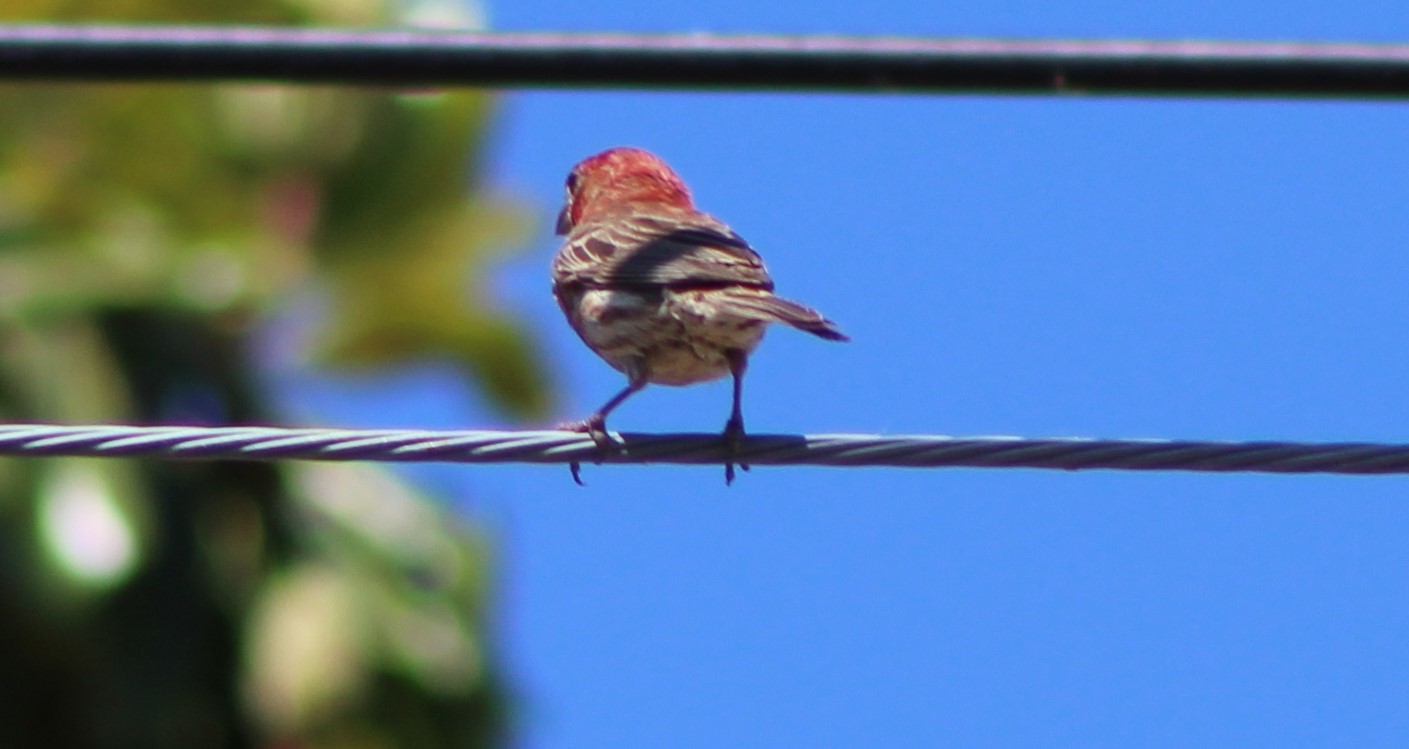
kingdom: Animalia
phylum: Chordata
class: Aves
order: Passeriformes
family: Fringillidae
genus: Haemorhous
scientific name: Haemorhous mexicanus
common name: House finch
